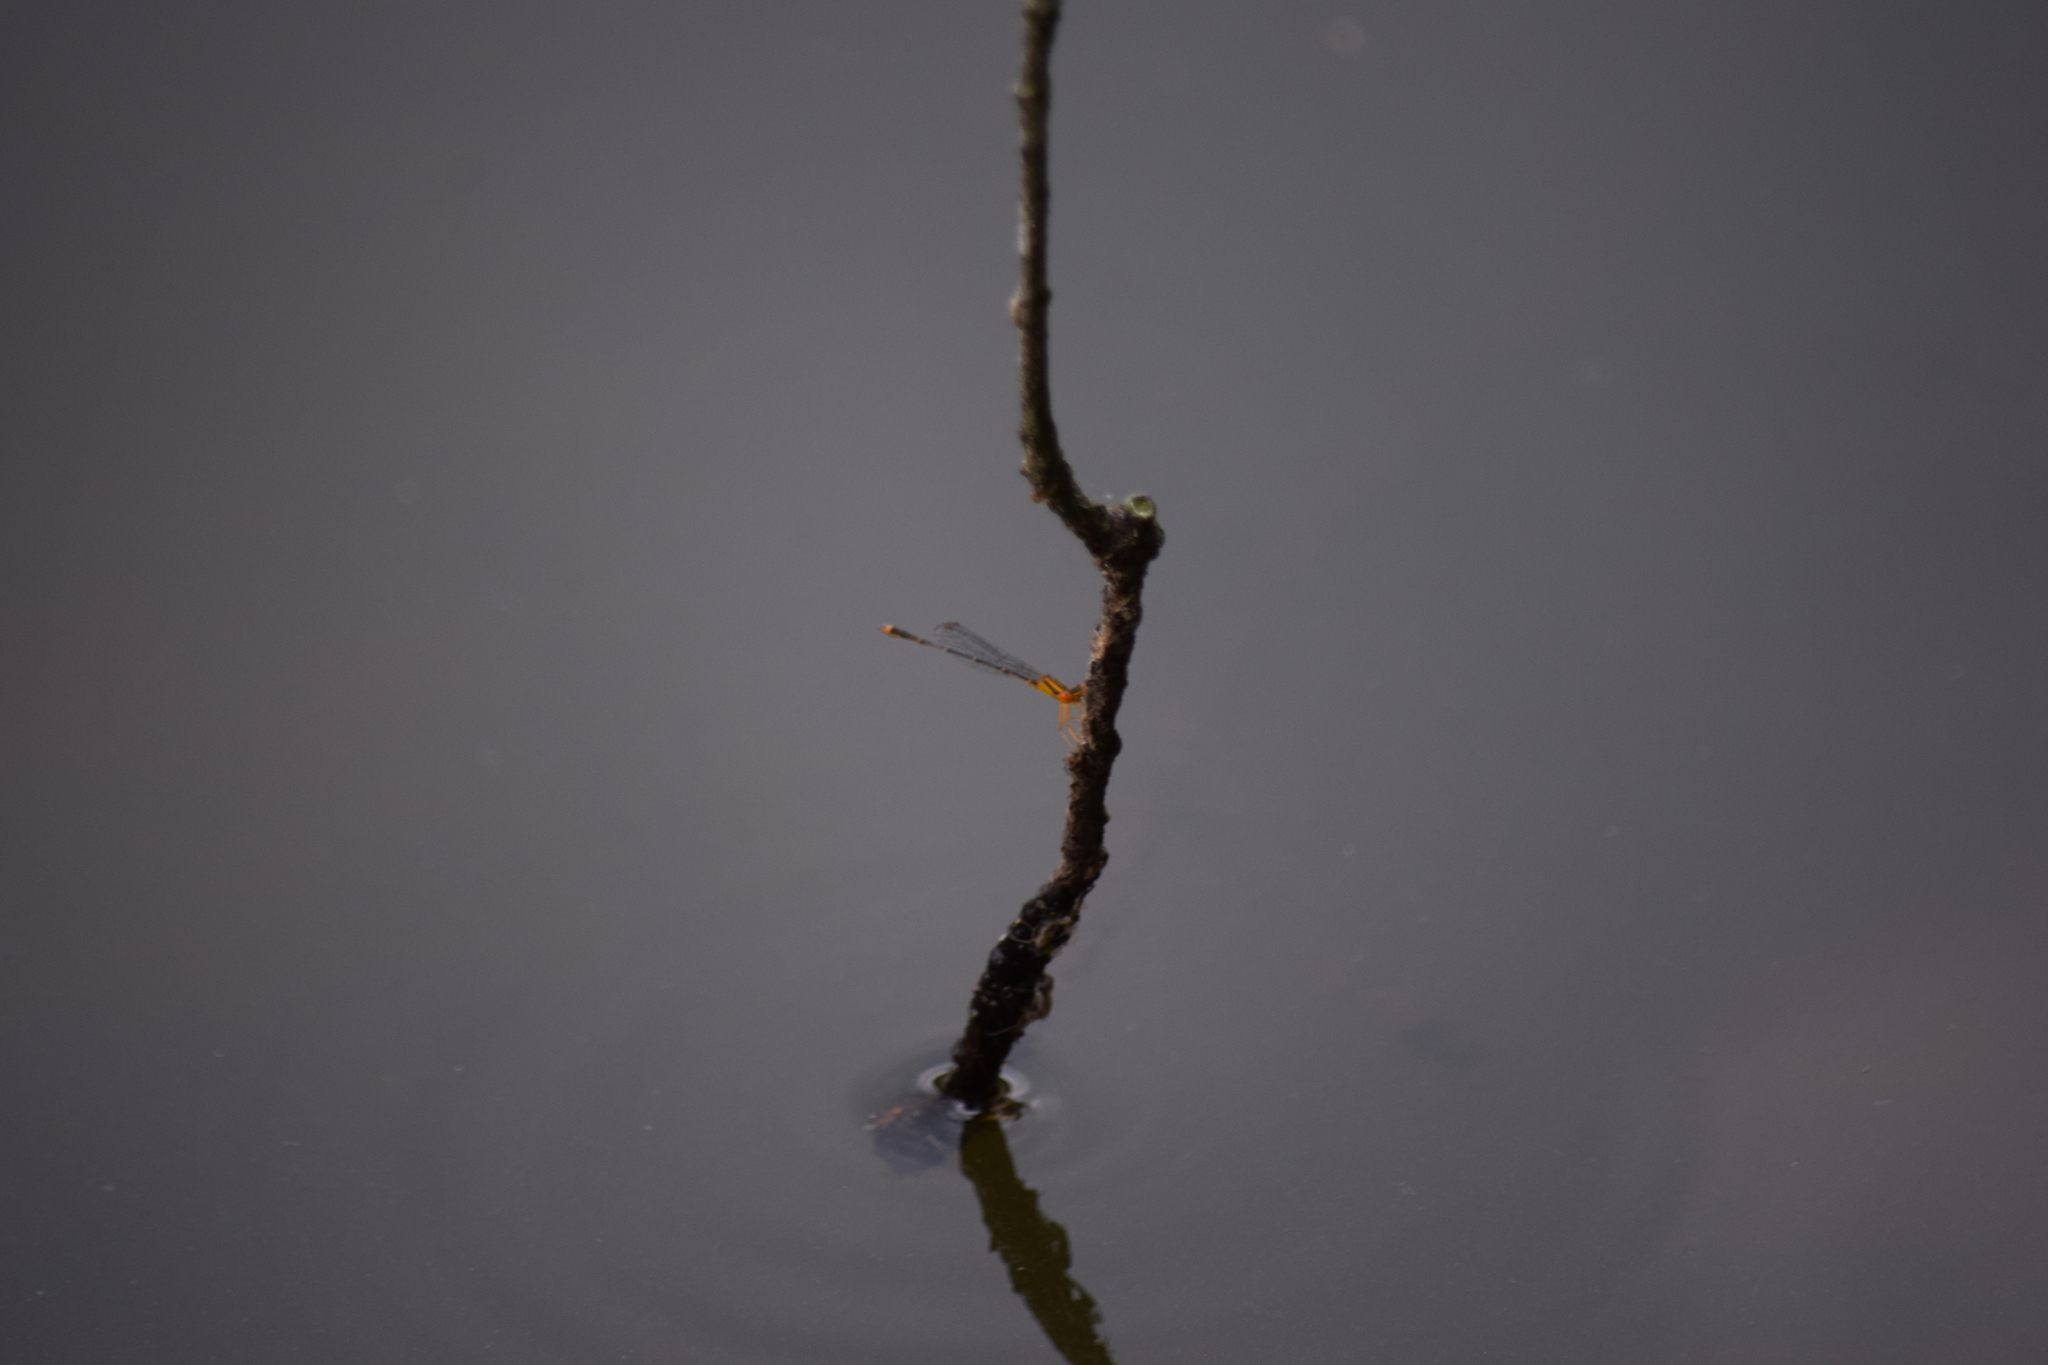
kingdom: Animalia
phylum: Arthropoda
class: Insecta
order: Odonata
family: Coenagrionidae
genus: Enallagma
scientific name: Enallagma signatum
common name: Orange bluet
